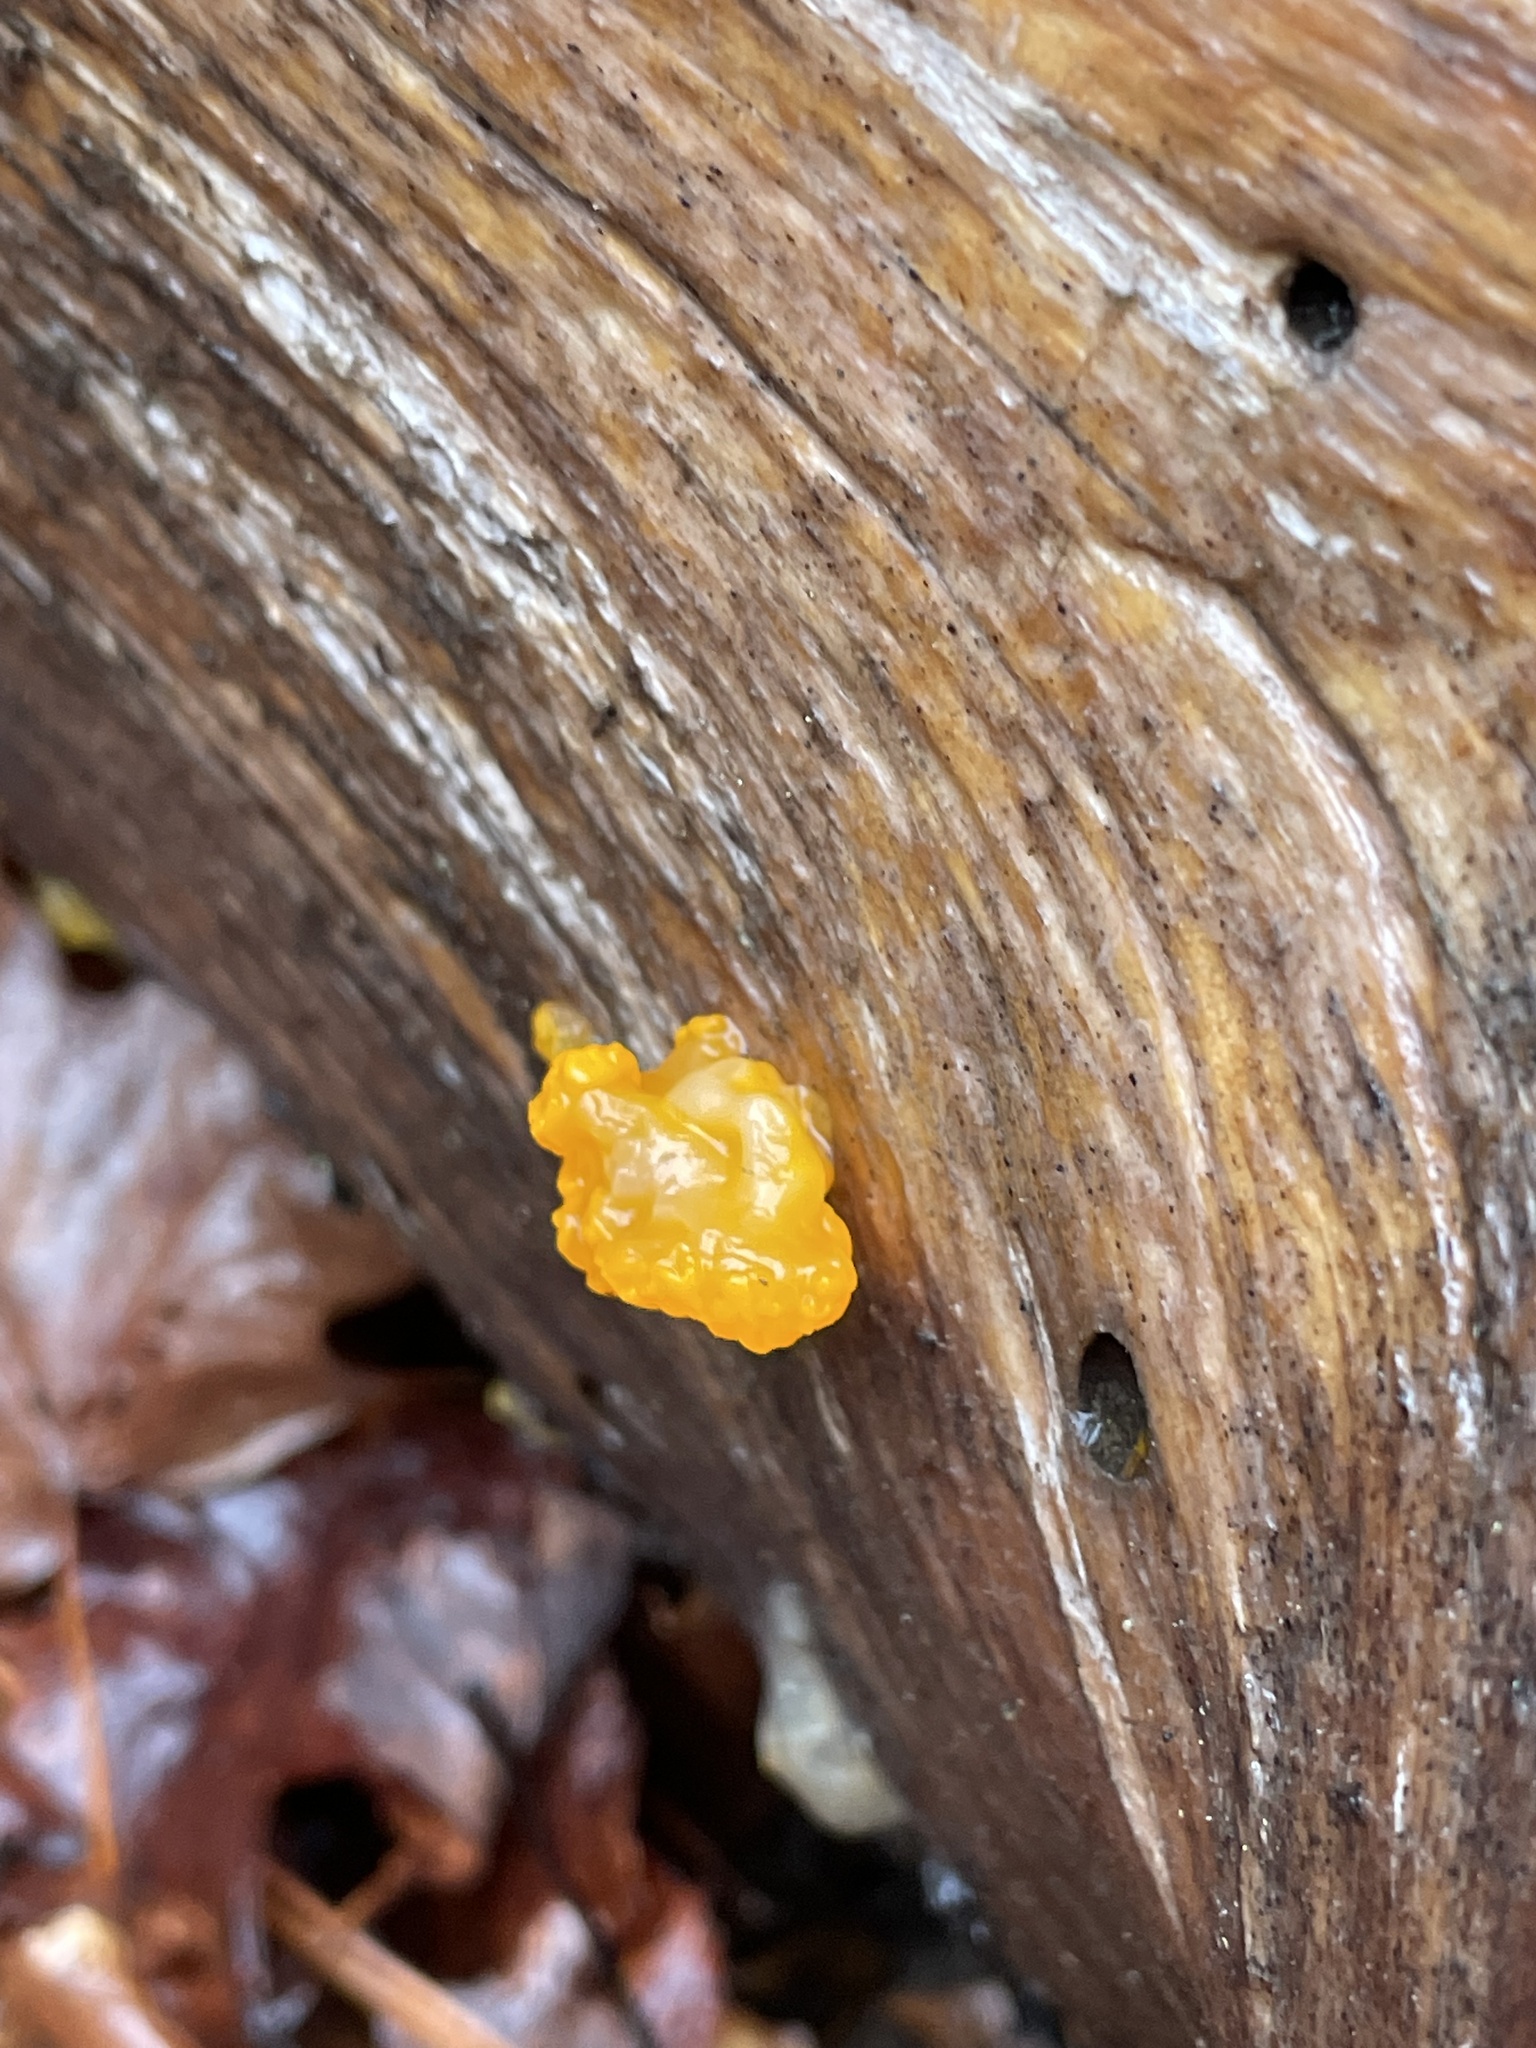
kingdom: Fungi
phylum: Basidiomycota
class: Dacrymycetes
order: Dacrymycetales
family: Dacrymycetaceae
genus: Dacrymyces
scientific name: Dacrymyces chrysospermus
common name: Orange jelly spot
